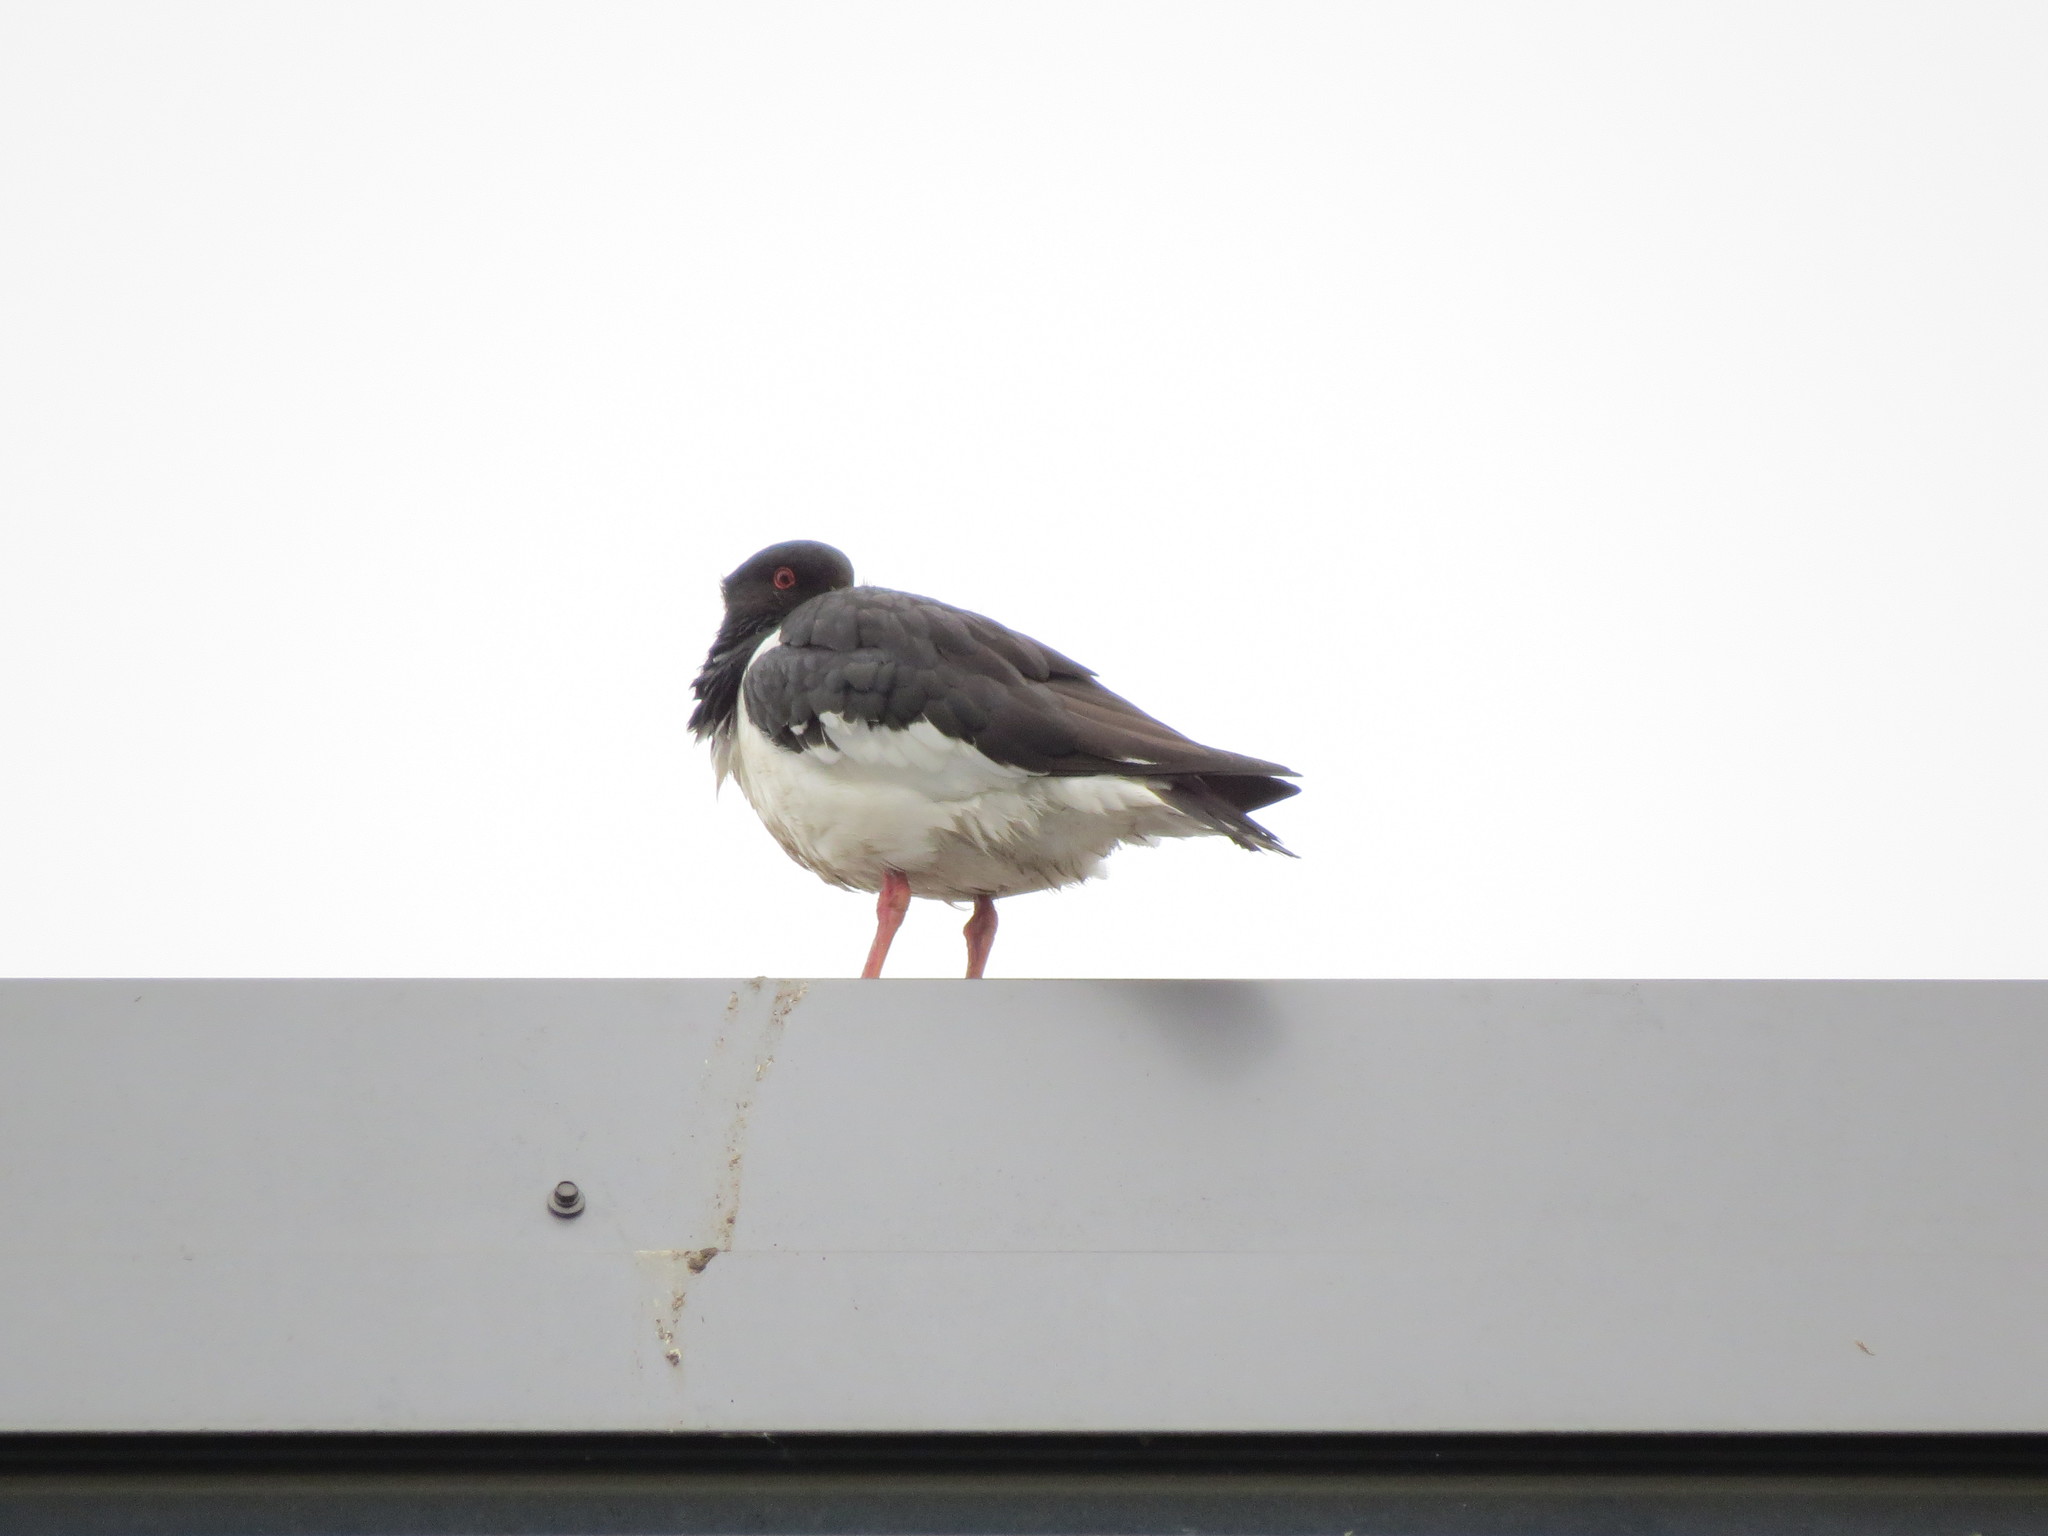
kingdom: Animalia
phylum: Chordata
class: Aves
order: Charadriiformes
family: Haematopodidae
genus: Haematopus
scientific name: Haematopus ostralegus
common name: Eurasian oystercatcher
